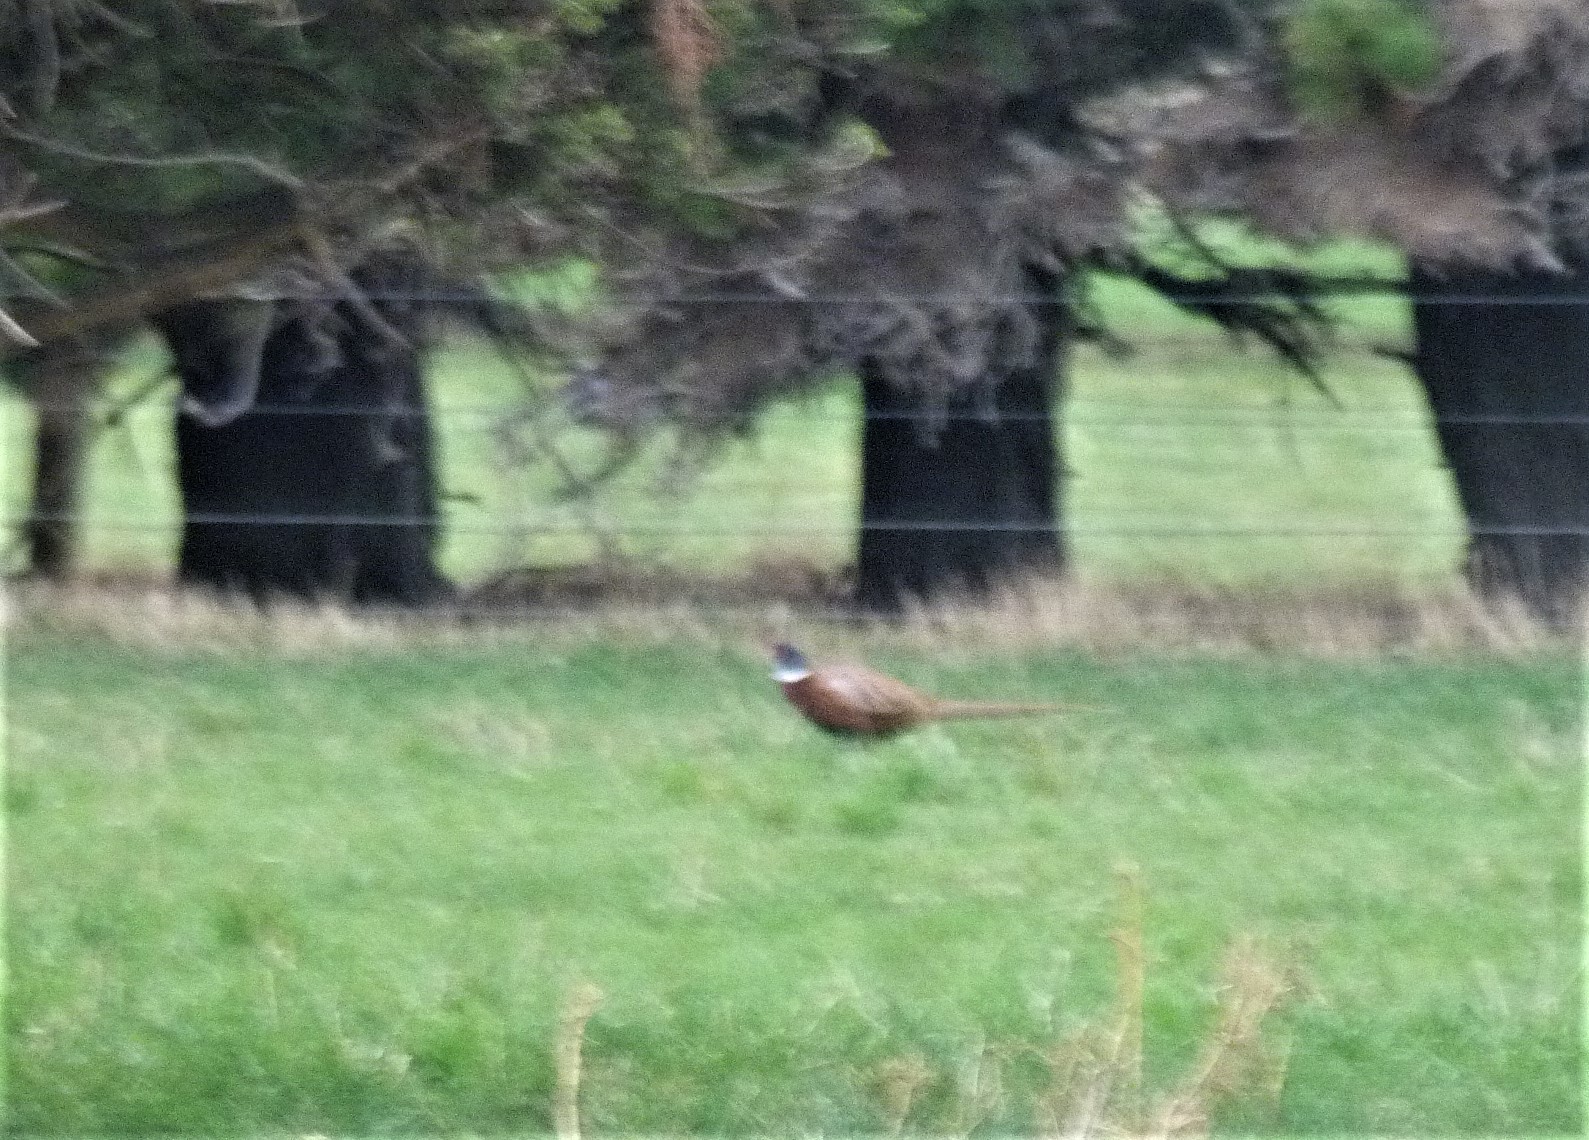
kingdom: Animalia
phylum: Chordata
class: Aves
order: Galliformes
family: Phasianidae
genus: Phasianus
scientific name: Phasianus colchicus
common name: Common pheasant
